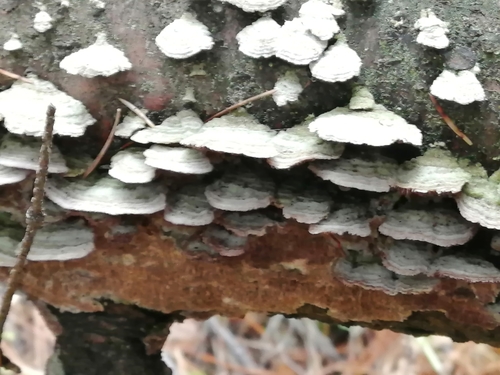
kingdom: Fungi
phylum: Basidiomycota
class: Agaricomycetes
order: Hymenochaetales
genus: Trichaptum
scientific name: Trichaptum fuscoviolaceum
